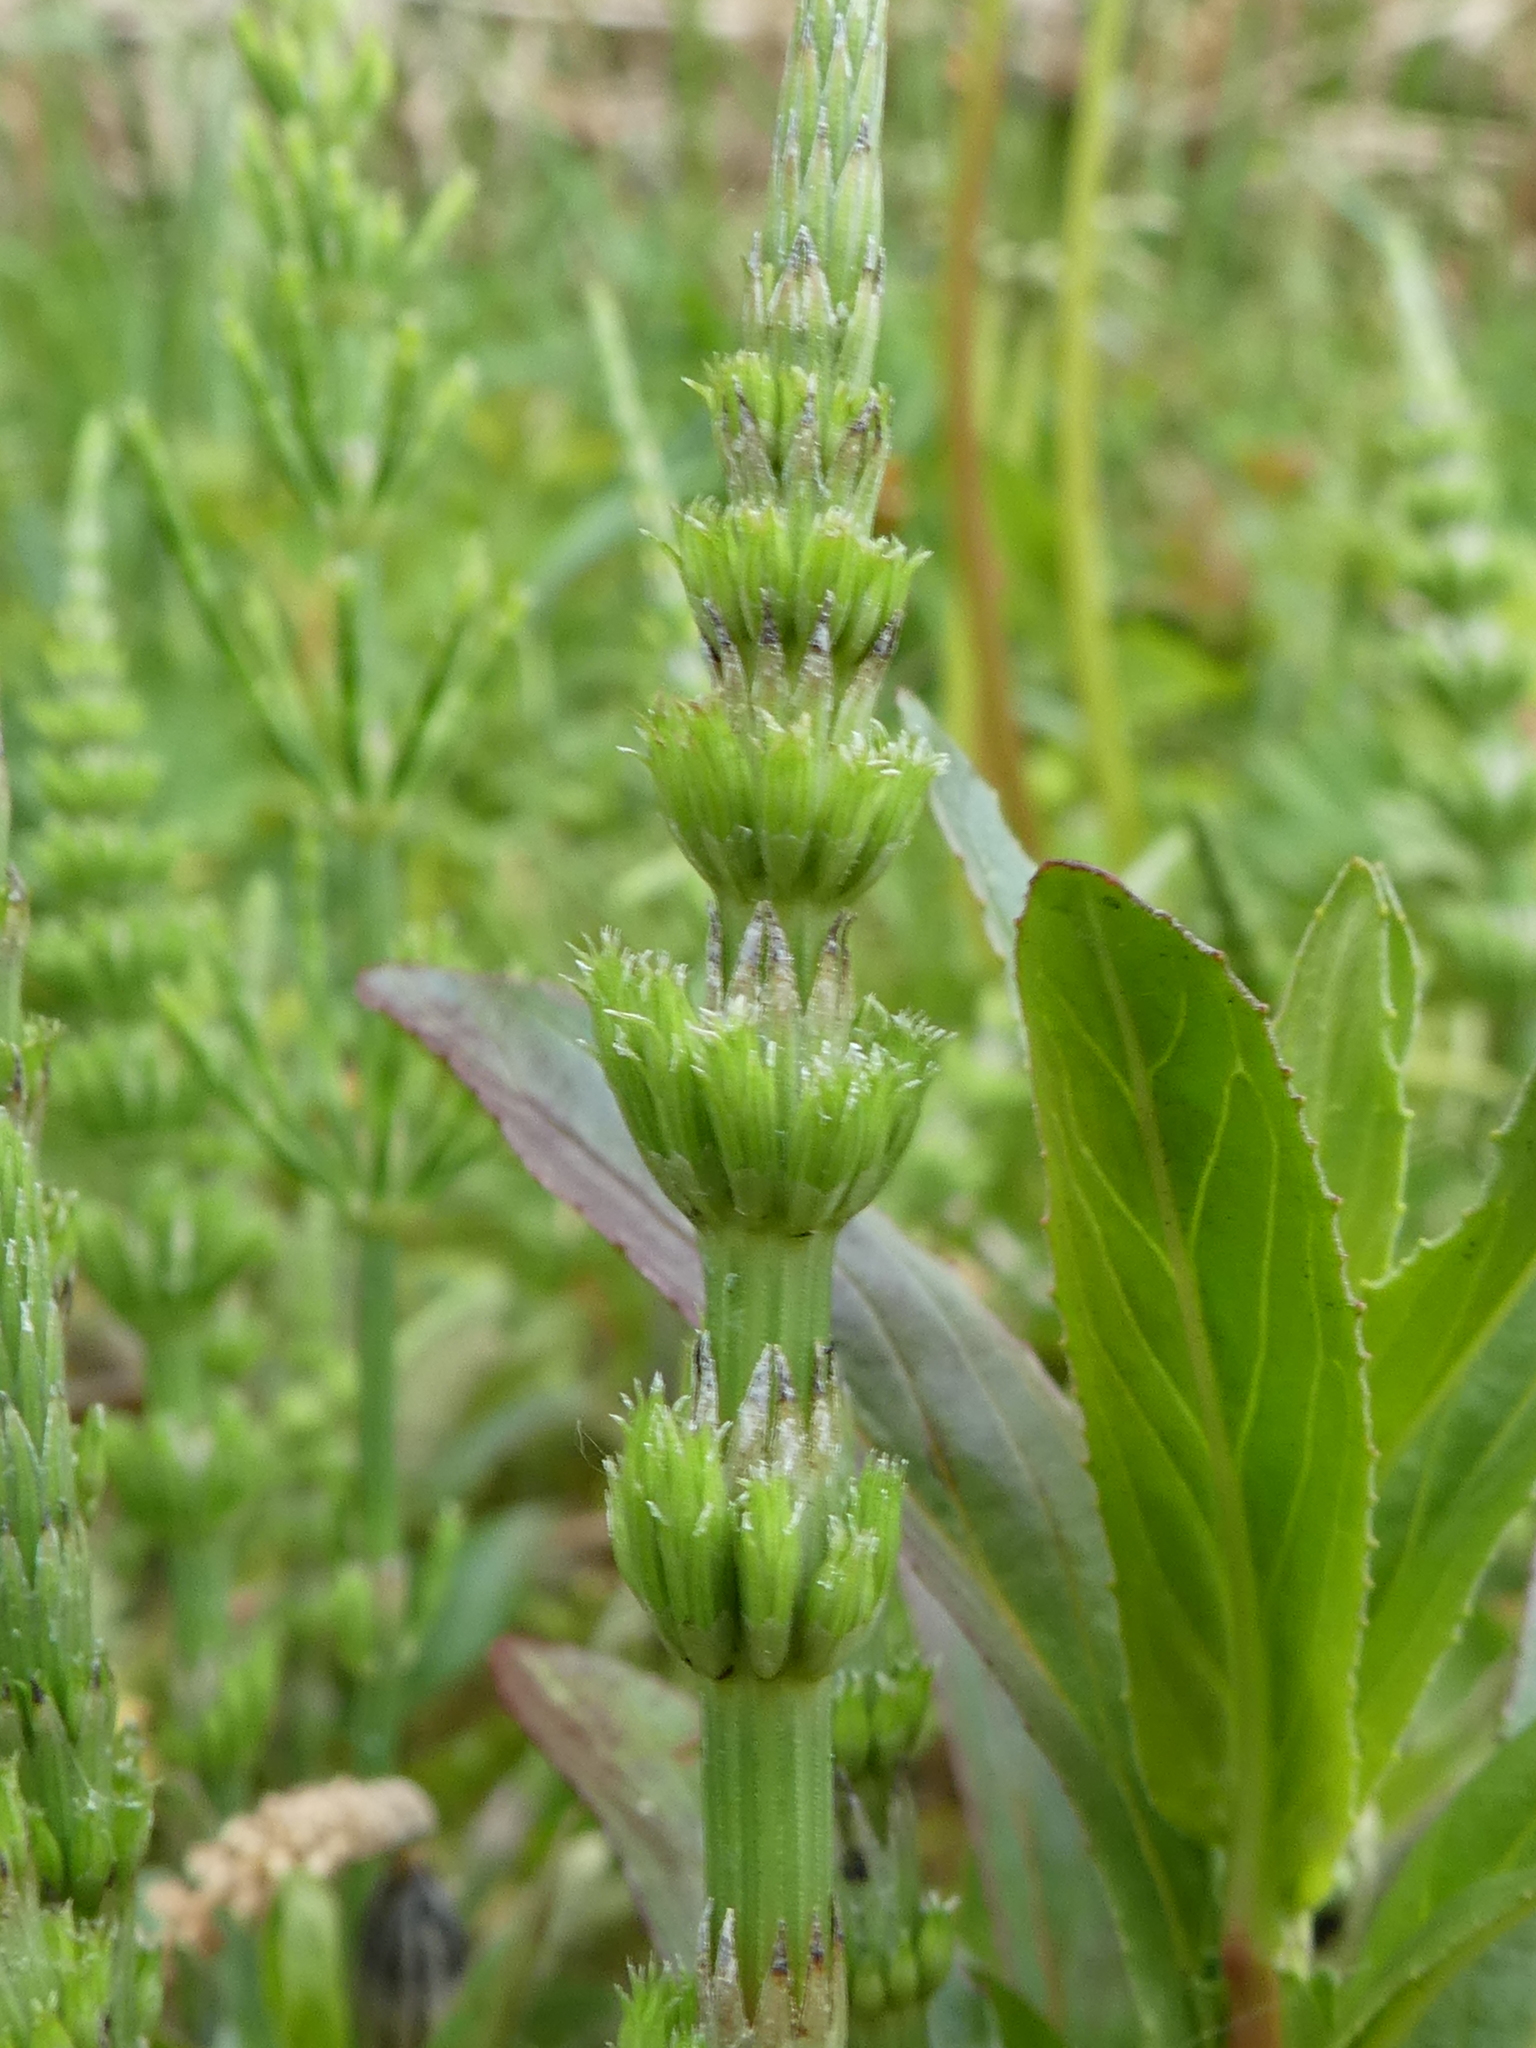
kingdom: Plantae
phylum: Tracheophyta
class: Polypodiopsida
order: Equisetales
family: Equisetaceae
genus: Equisetum
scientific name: Equisetum arvense
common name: Field horsetail
